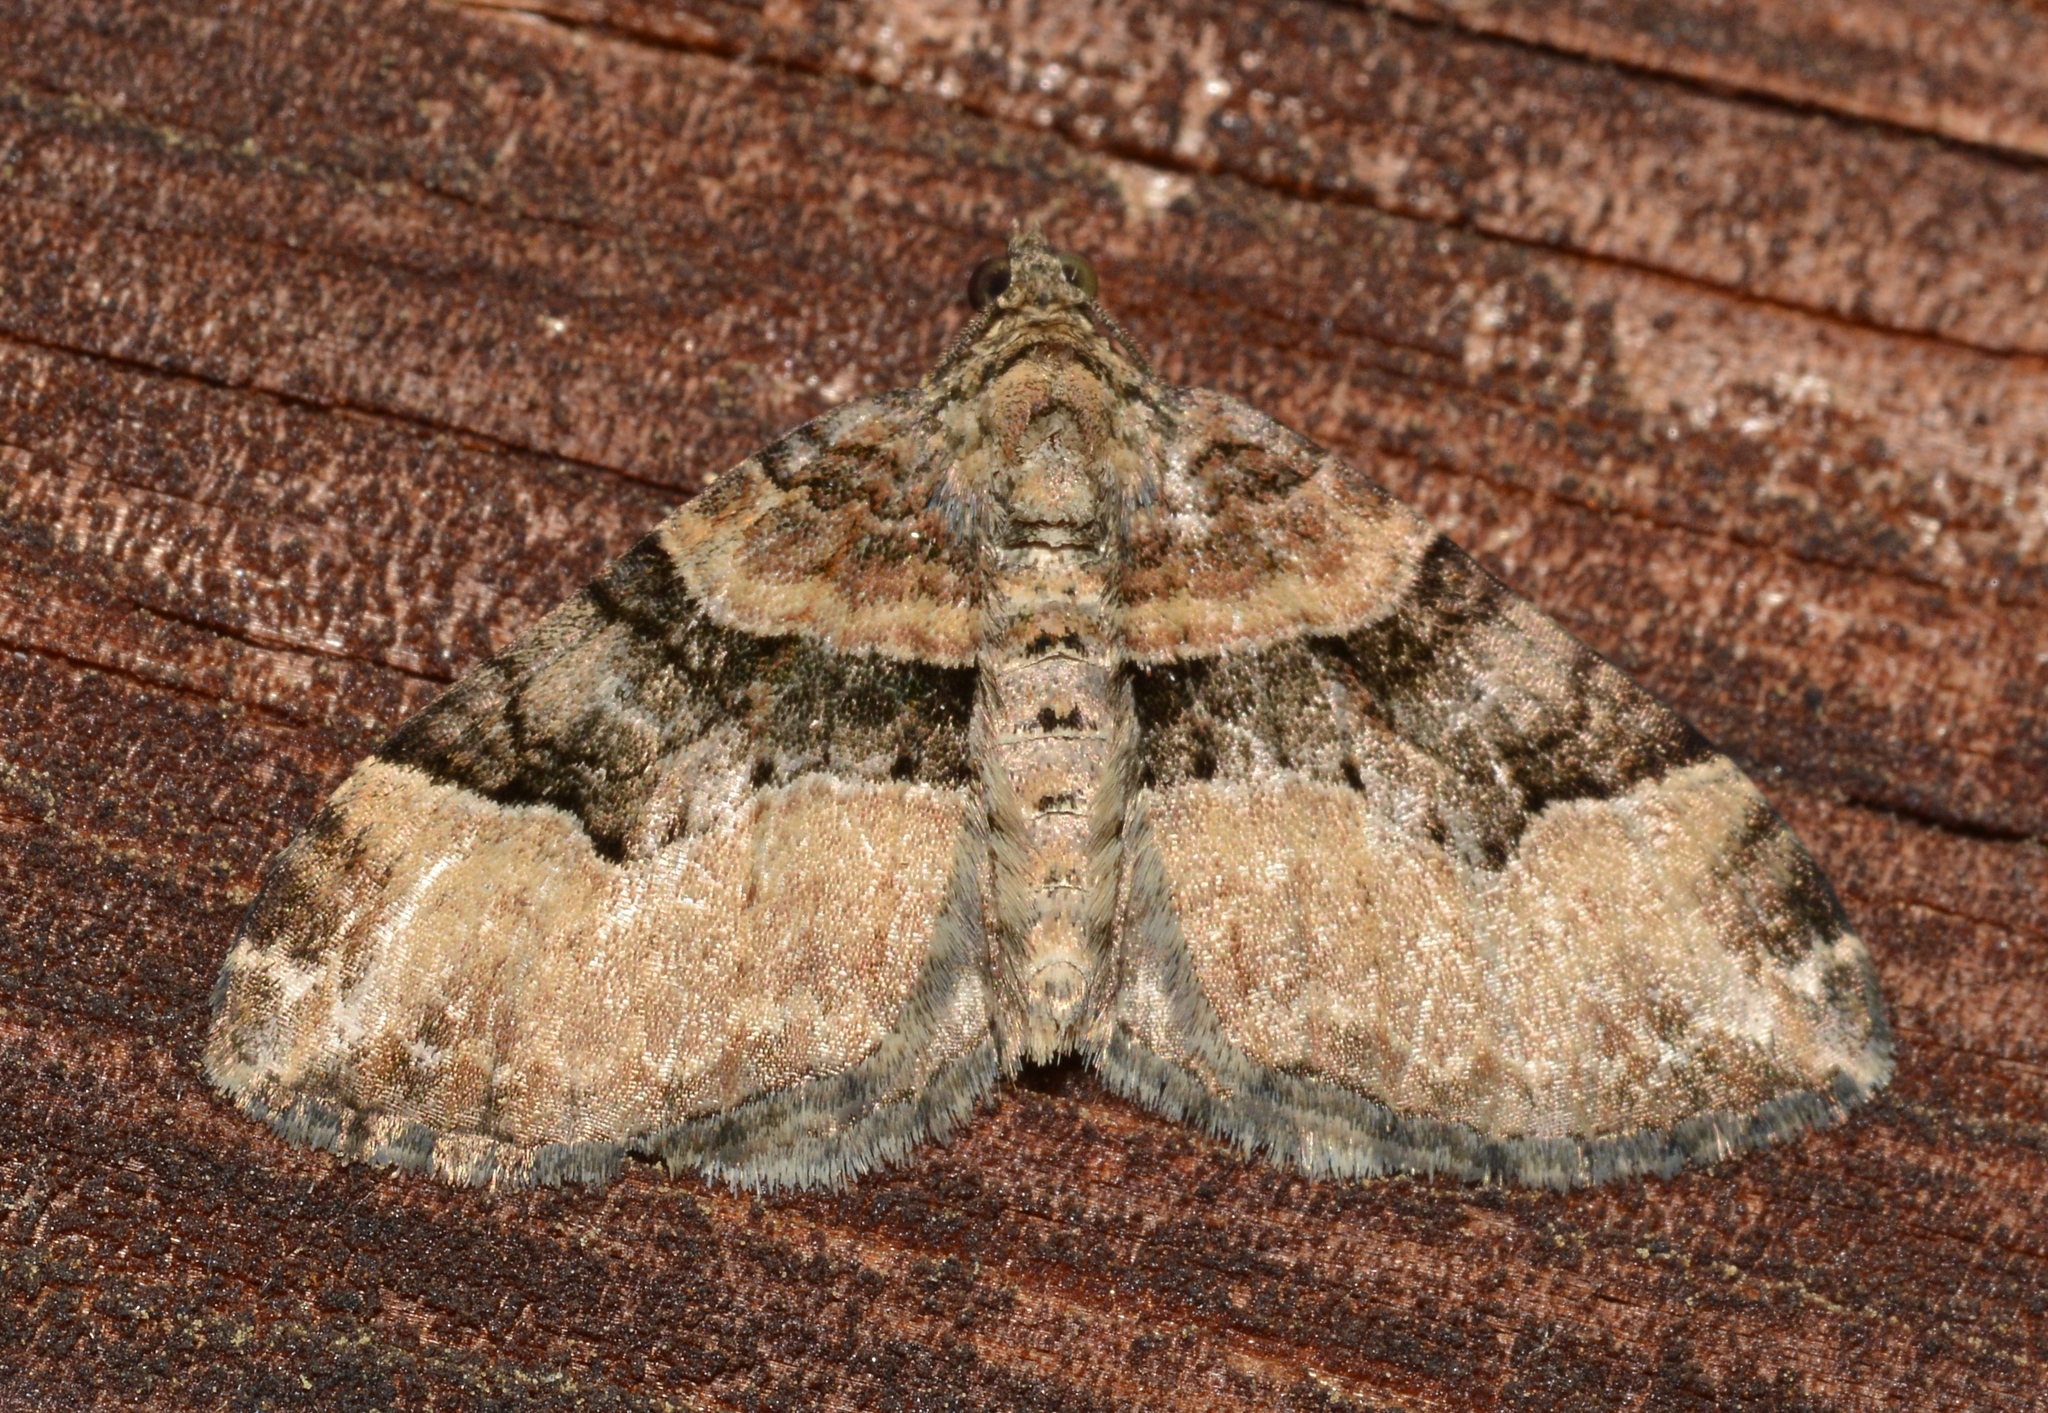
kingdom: Animalia
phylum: Arthropoda
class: Insecta
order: Lepidoptera
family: Geometridae
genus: Xanthorhoe
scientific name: Xanthorhoe lacustrata
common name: Toothed brown carpet
